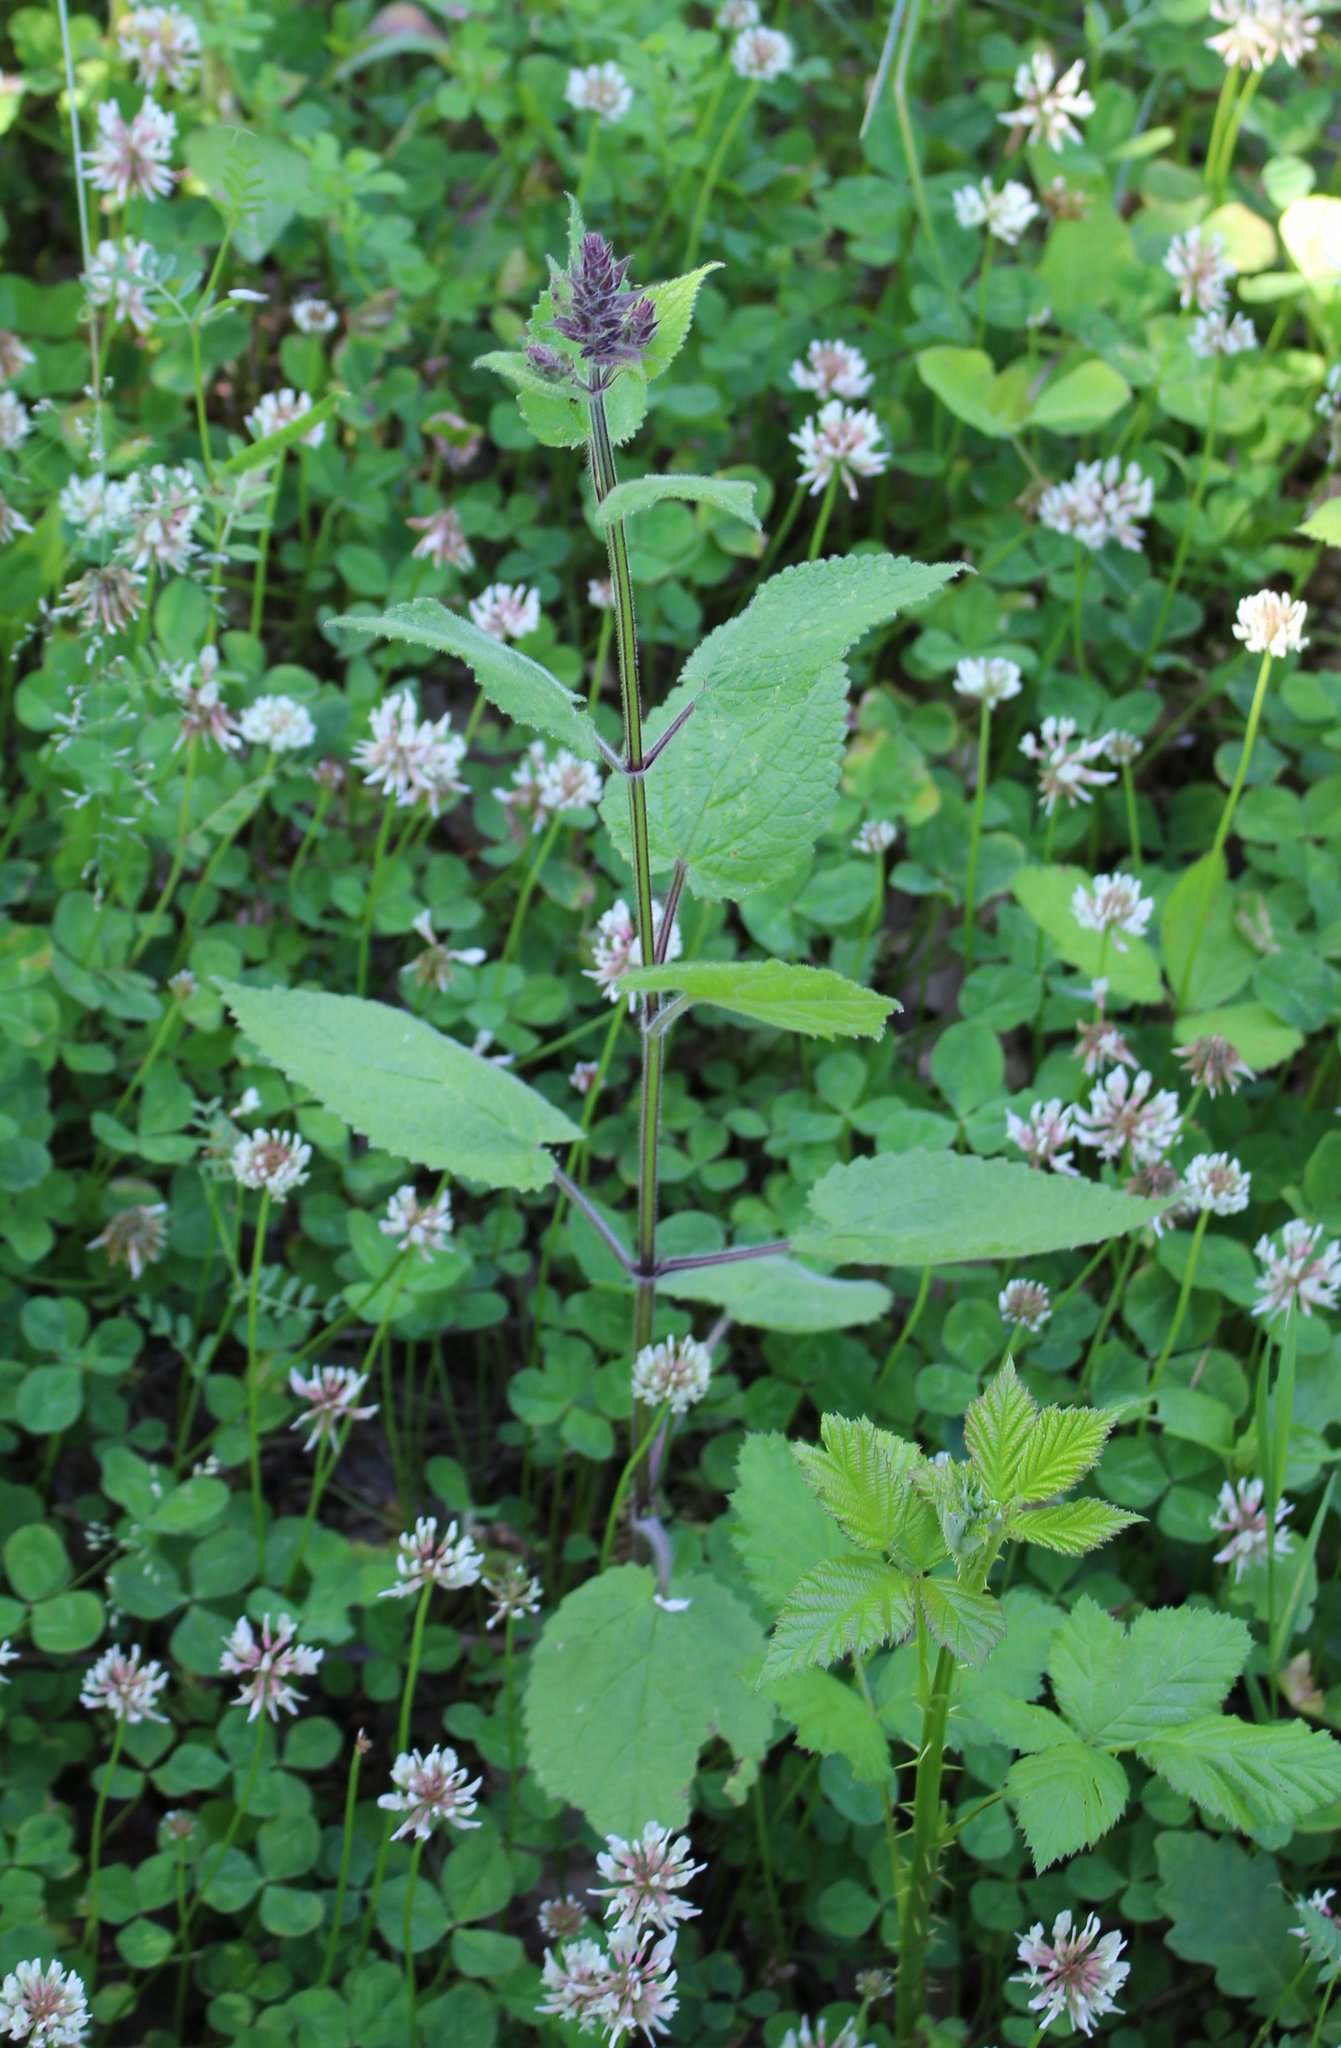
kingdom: Plantae
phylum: Tracheophyta
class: Magnoliopsida
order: Lamiales
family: Lamiaceae
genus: Stachys
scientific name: Stachys sylvatica
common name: Hedge woundwort
